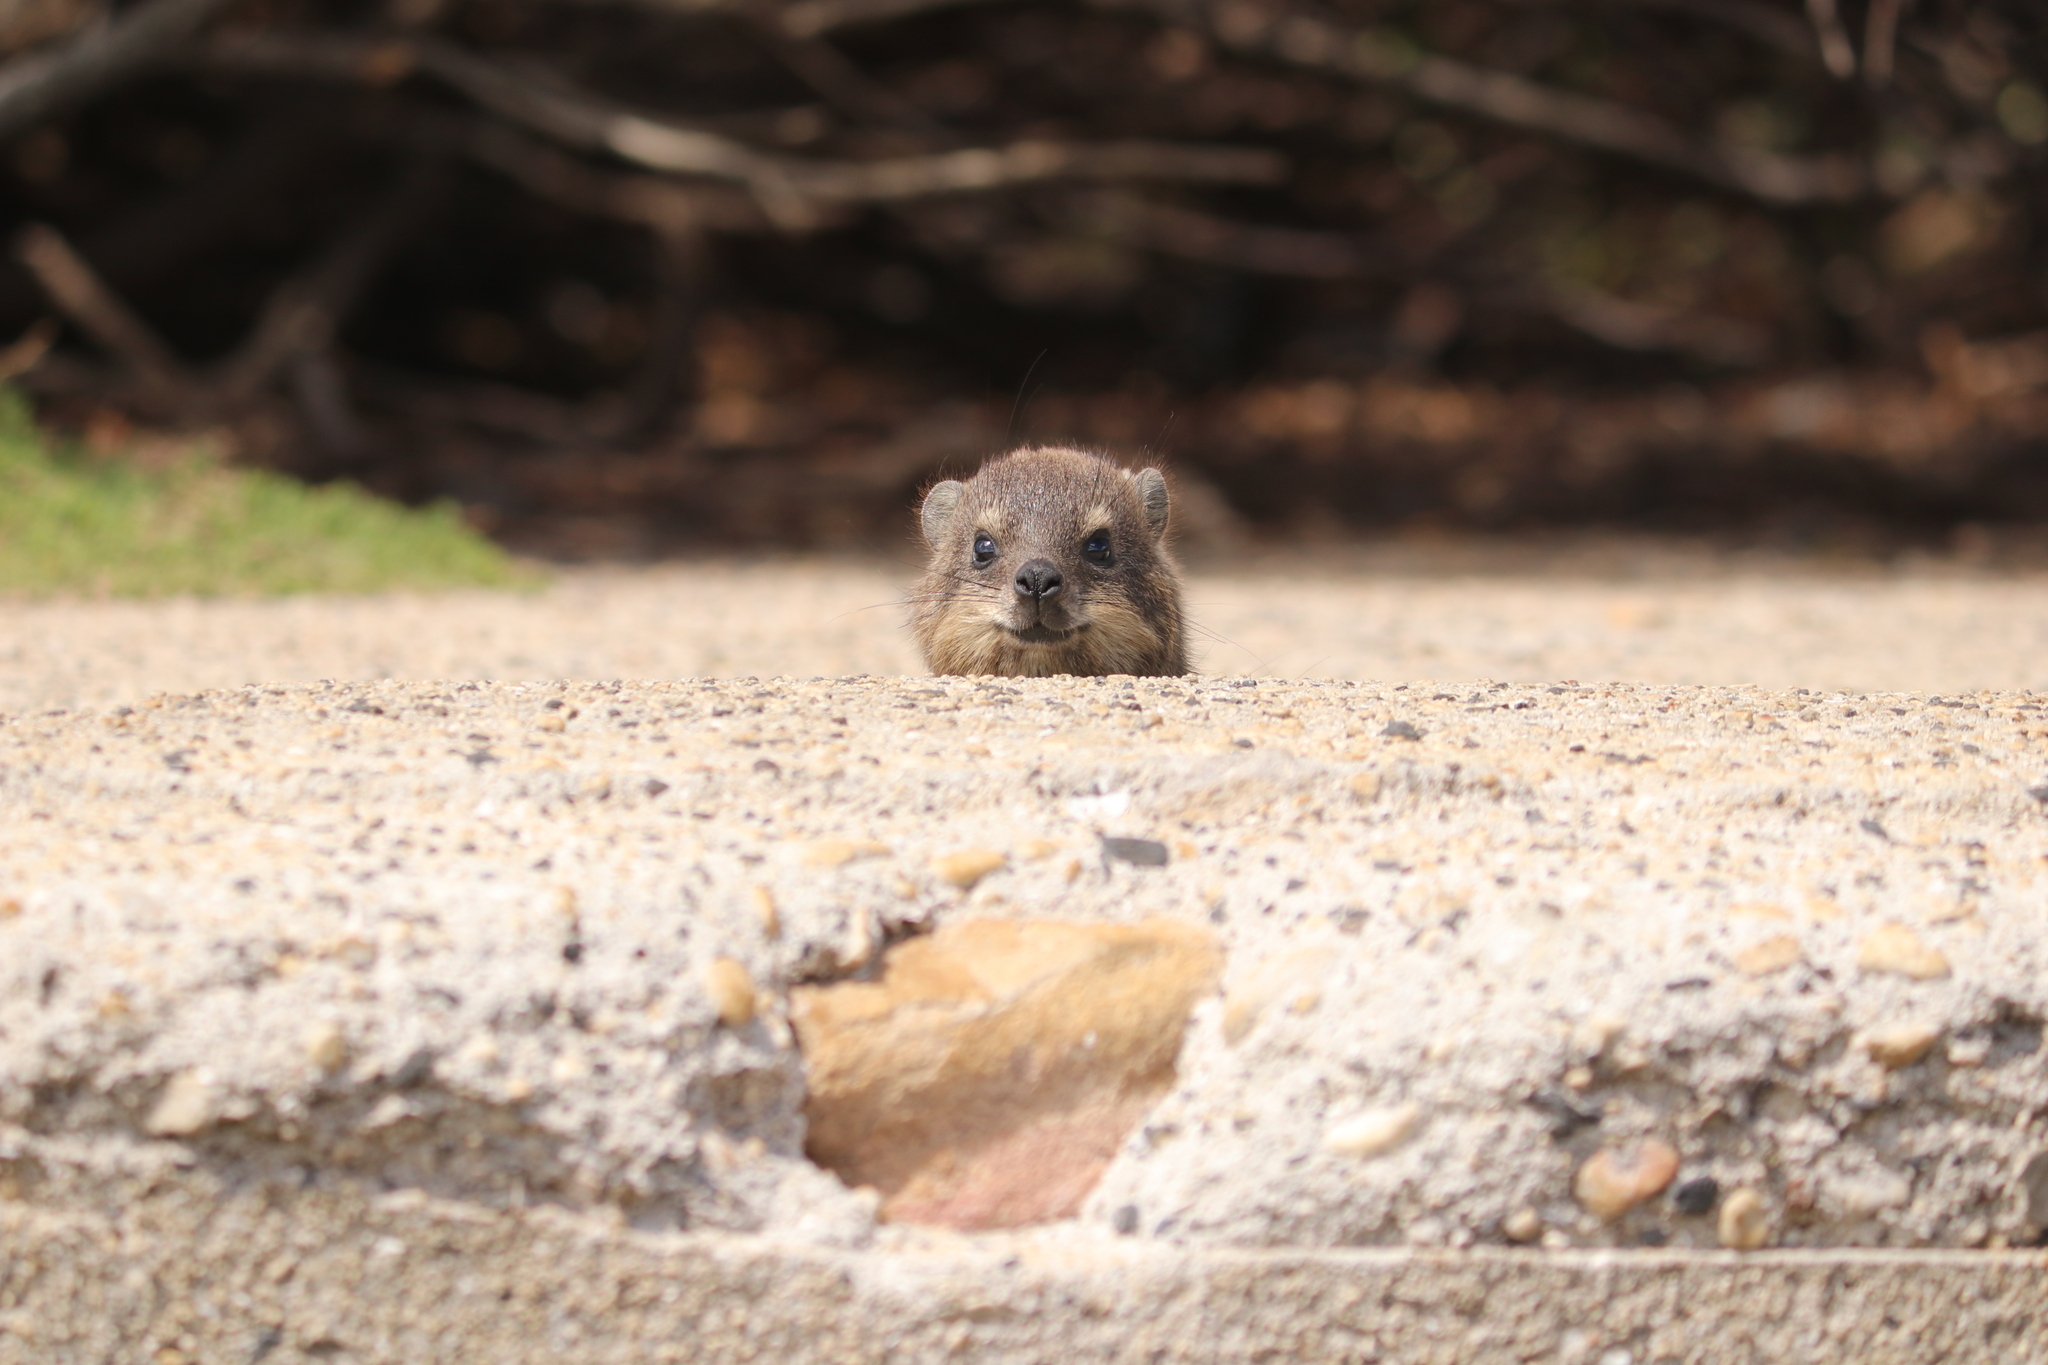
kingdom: Animalia
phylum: Chordata
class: Mammalia
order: Hyracoidea
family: Procaviidae
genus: Procavia
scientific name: Procavia capensis
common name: Rock hyrax
